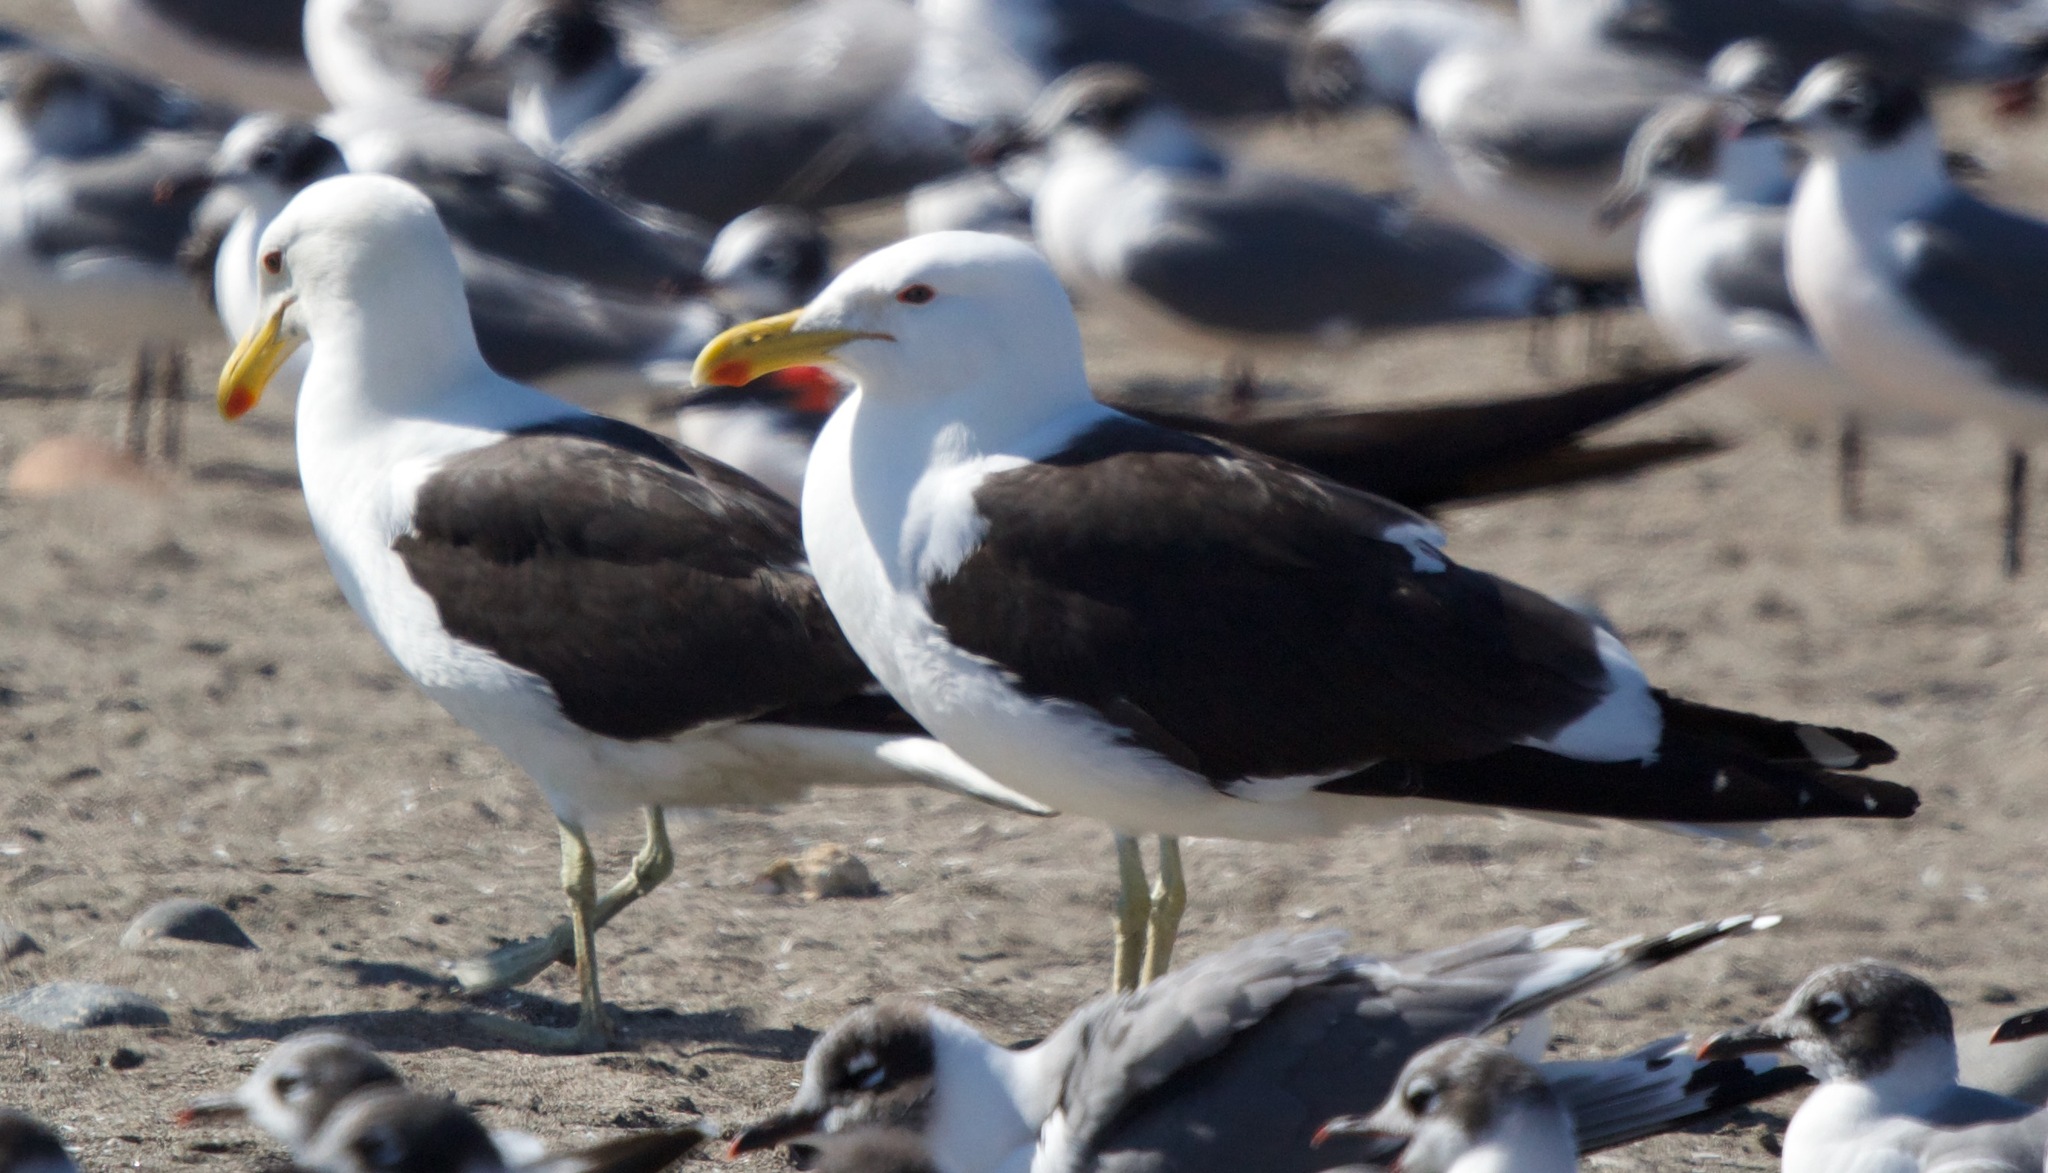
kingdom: Animalia
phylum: Chordata
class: Aves
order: Charadriiformes
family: Laridae
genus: Larus
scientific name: Larus dominicanus
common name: Kelp gull
